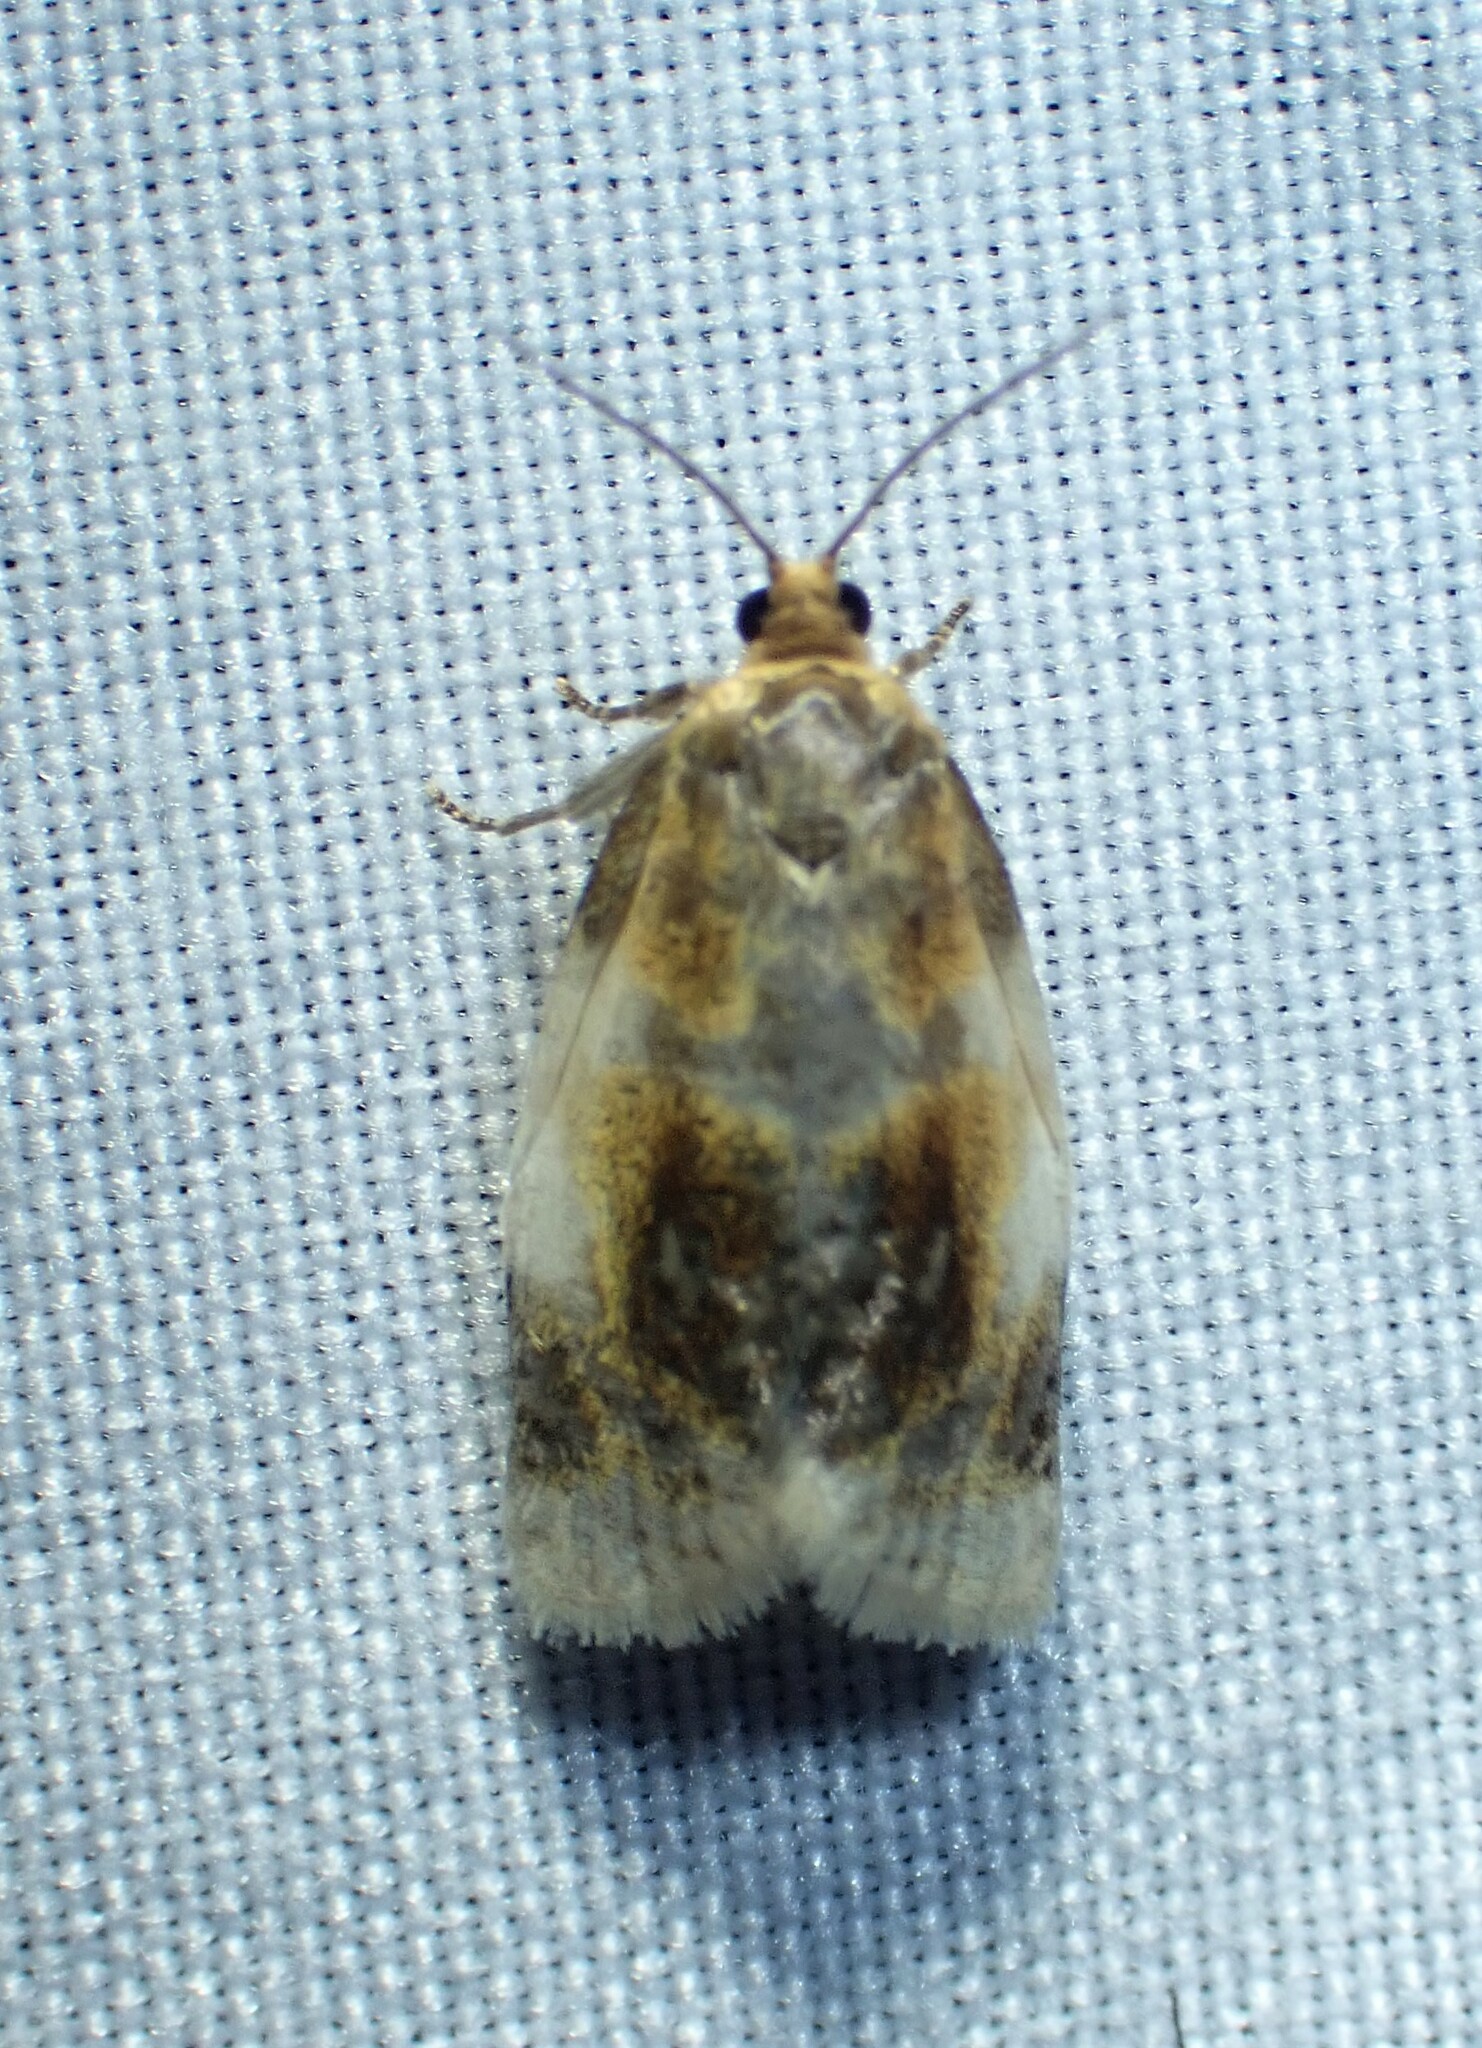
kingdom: Animalia
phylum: Arthropoda
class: Insecta
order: Lepidoptera
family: Tortricidae
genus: Clepsis
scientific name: Clepsis melaleucanus
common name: American apple tortrix
